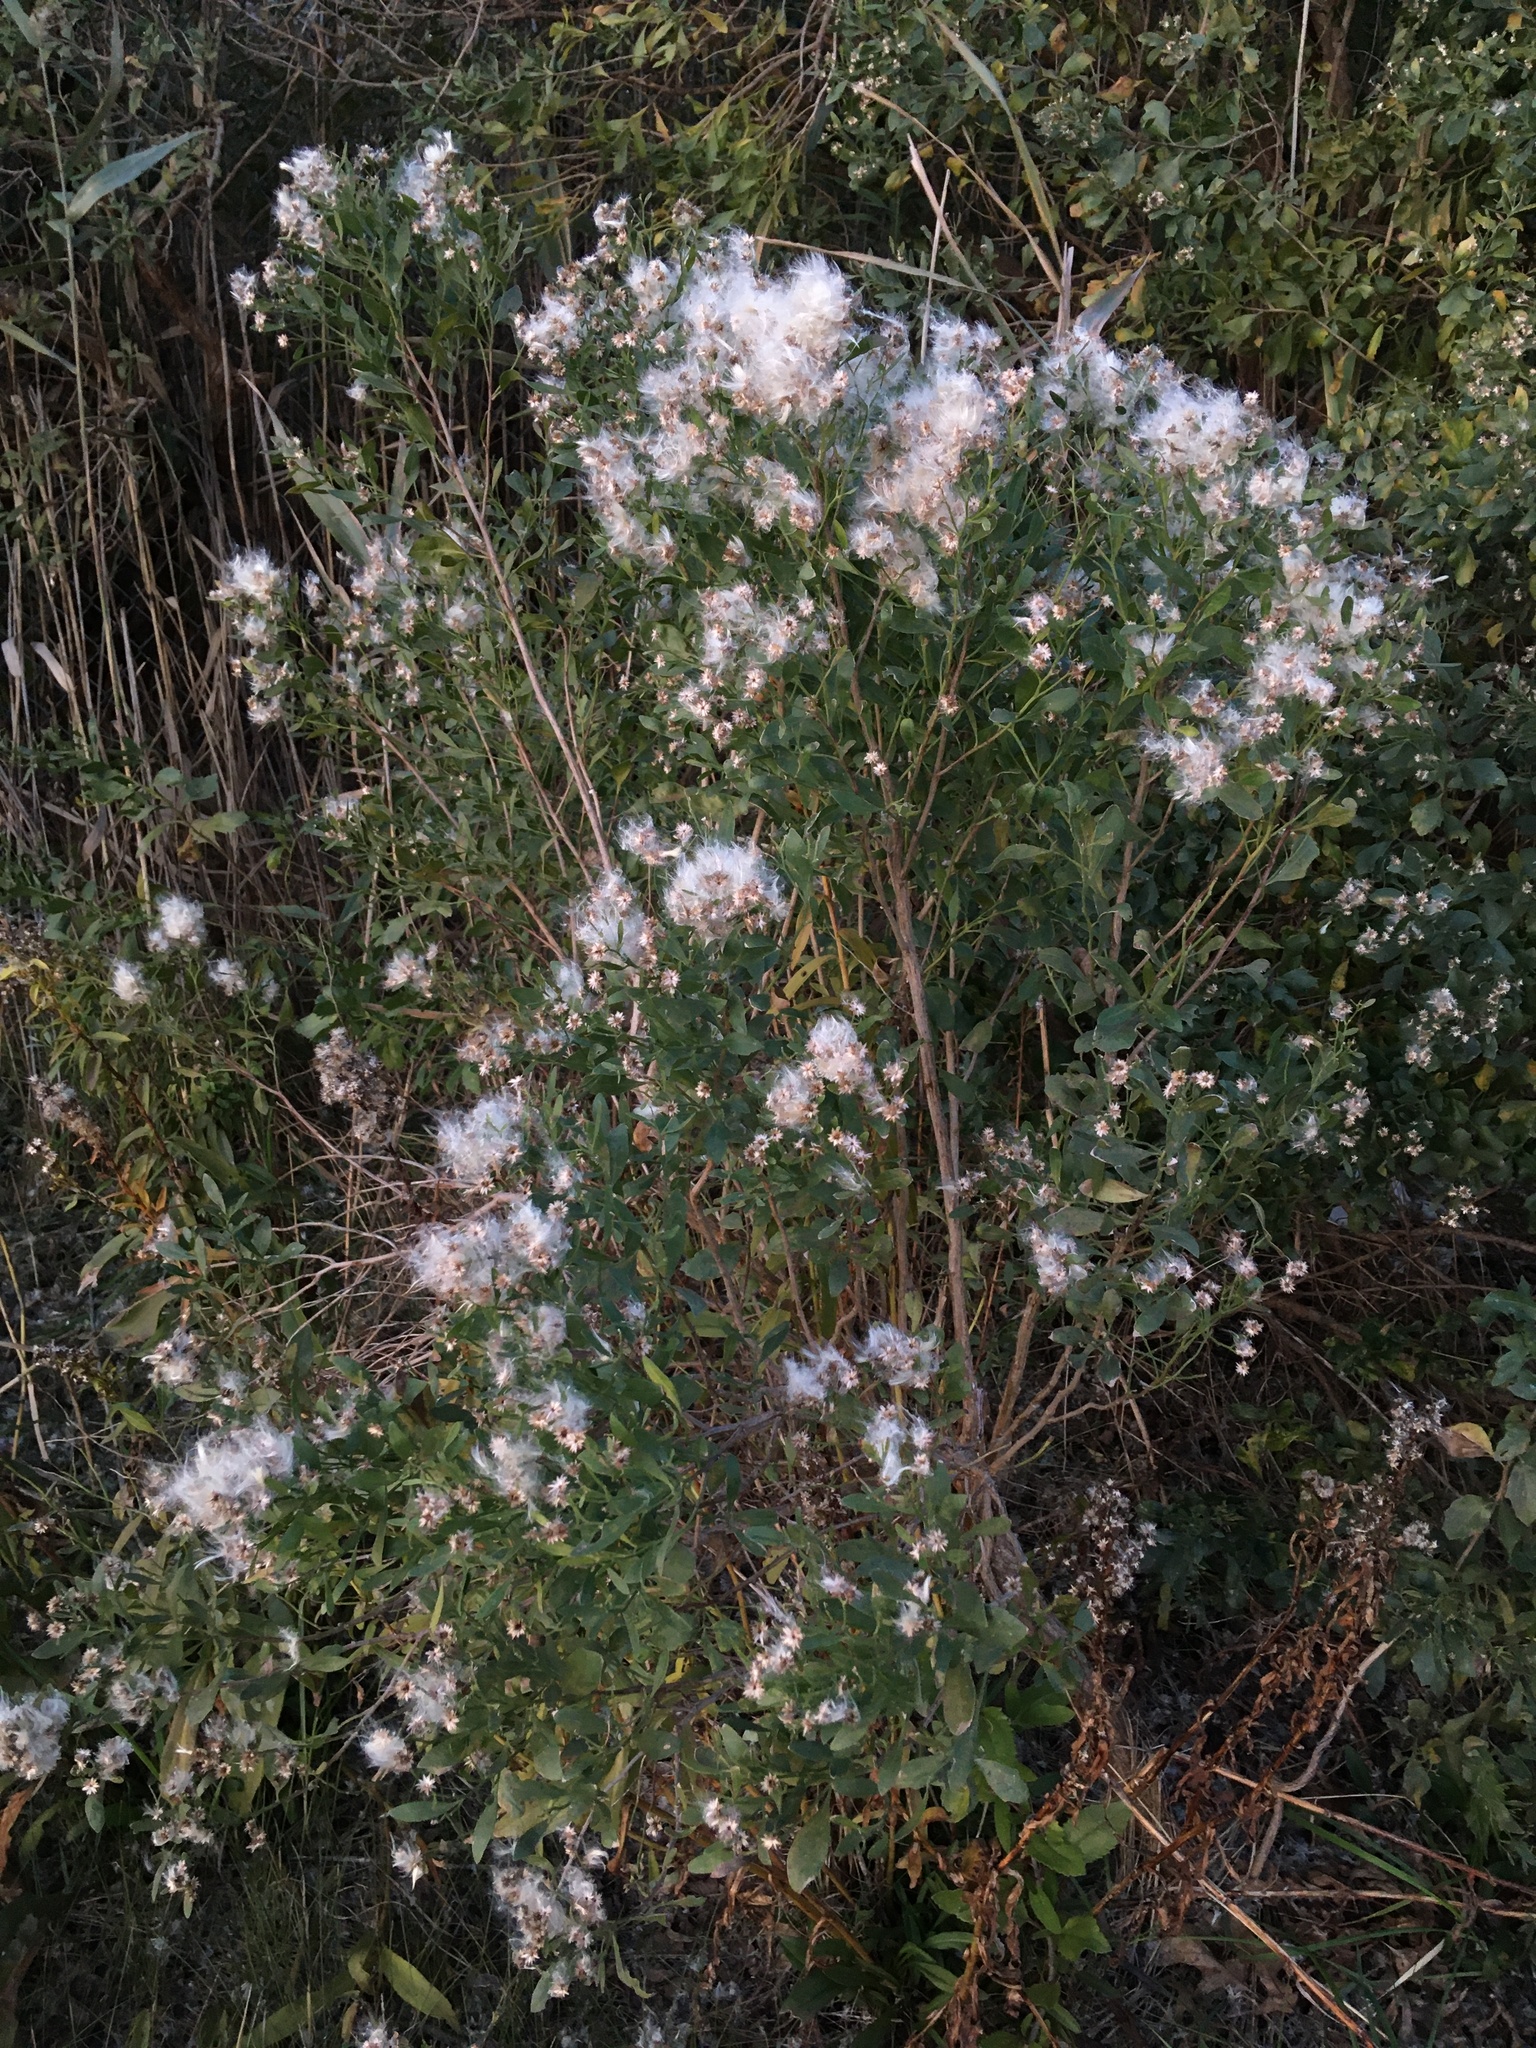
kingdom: Plantae
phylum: Tracheophyta
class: Magnoliopsida
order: Asterales
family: Asteraceae
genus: Baccharis
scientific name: Baccharis halimifolia
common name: Eastern baccharis
